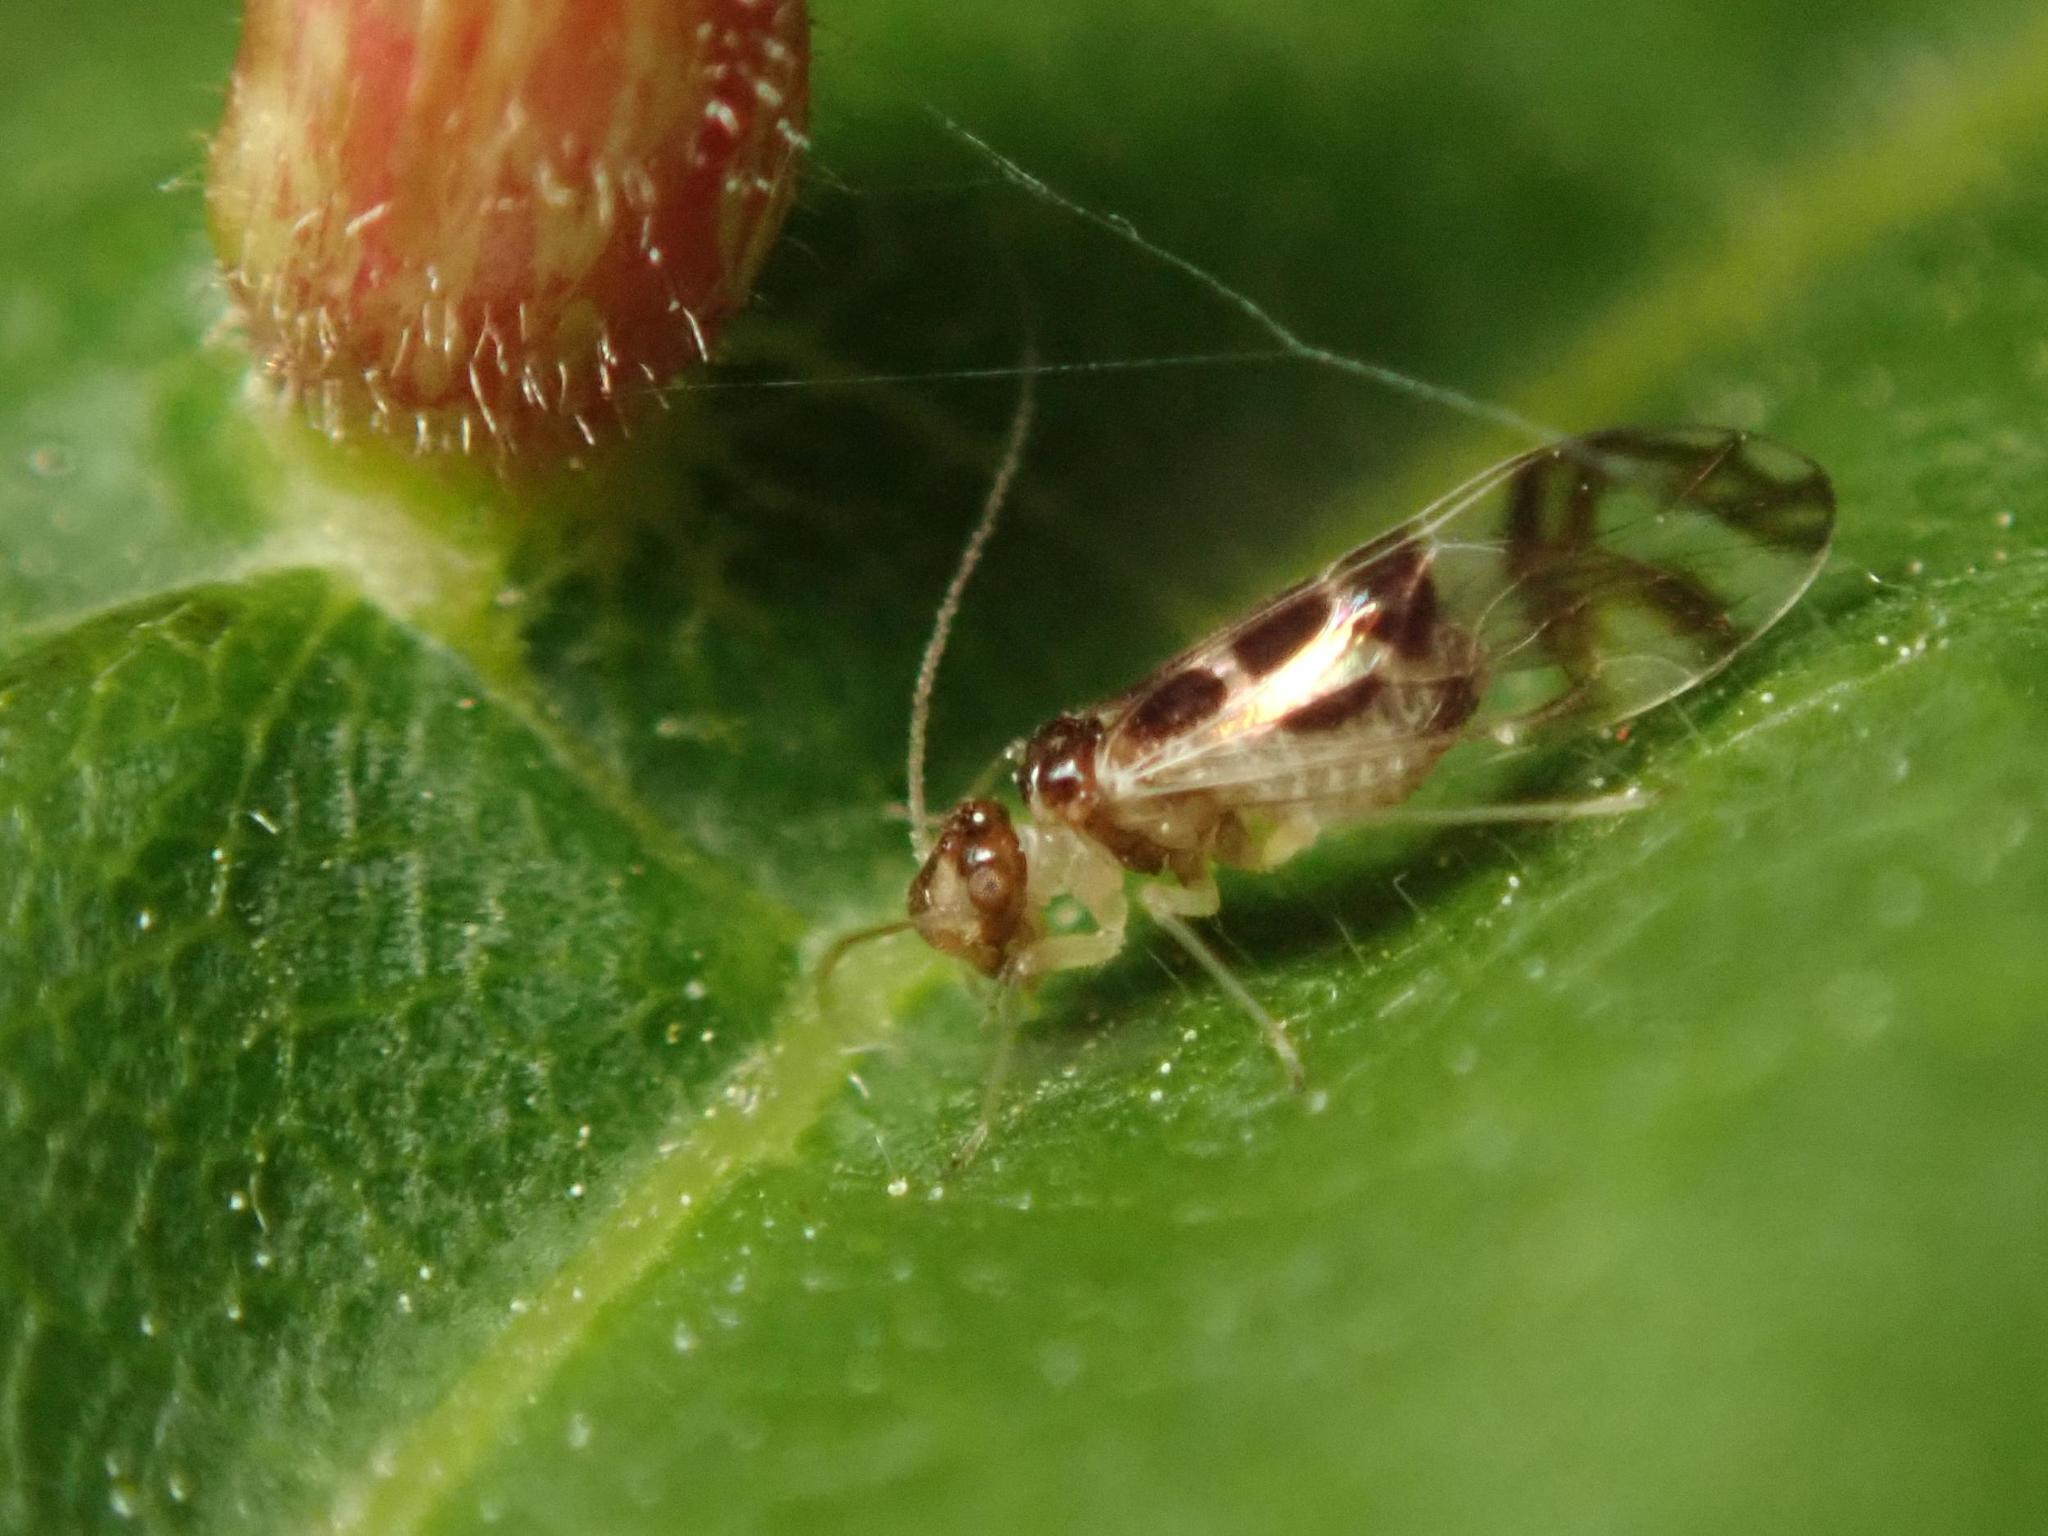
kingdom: Animalia
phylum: Arthropoda
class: Insecta
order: Psocodea
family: Stenopsocidae
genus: Graphopsocus
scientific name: Graphopsocus cruciatus
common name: Lizard bark louse
